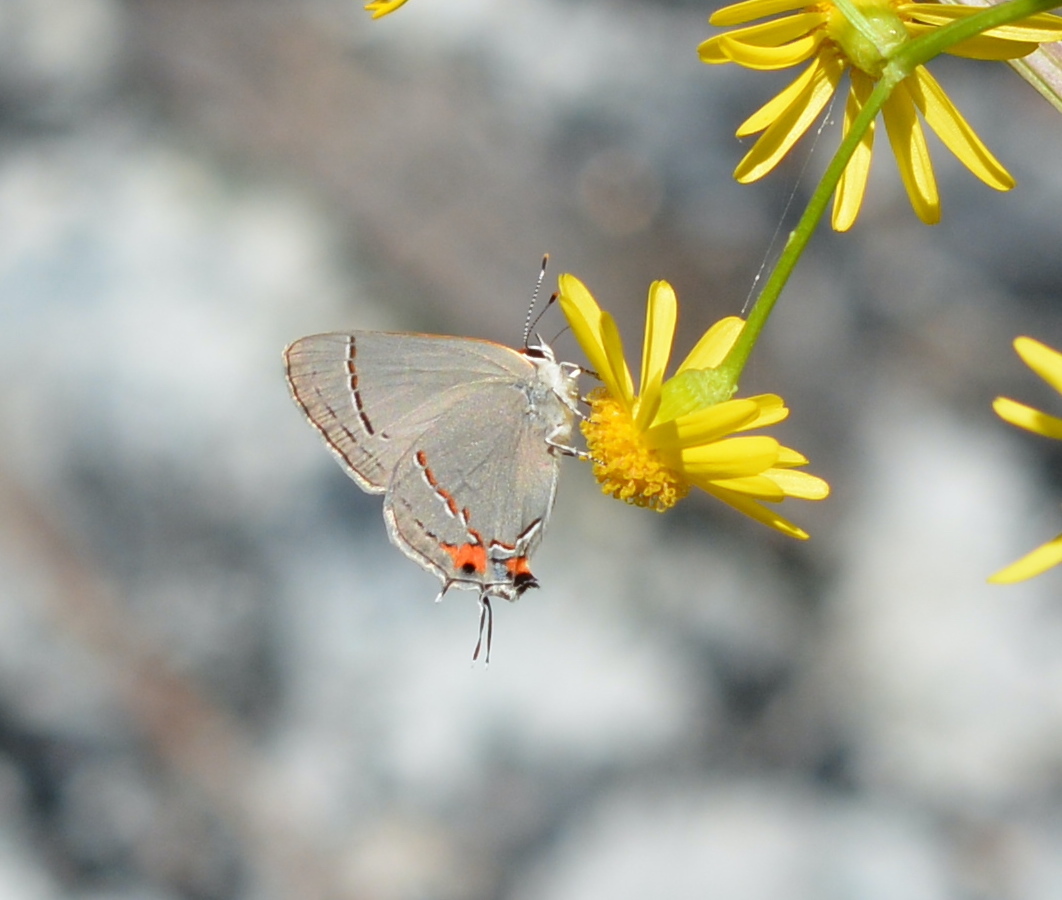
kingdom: Animalia
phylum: Arthropoda
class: Insecta
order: Lepidoptera
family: Lycaenidae
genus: Strymon
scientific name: Strymon melinus
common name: Gray hairstreak
